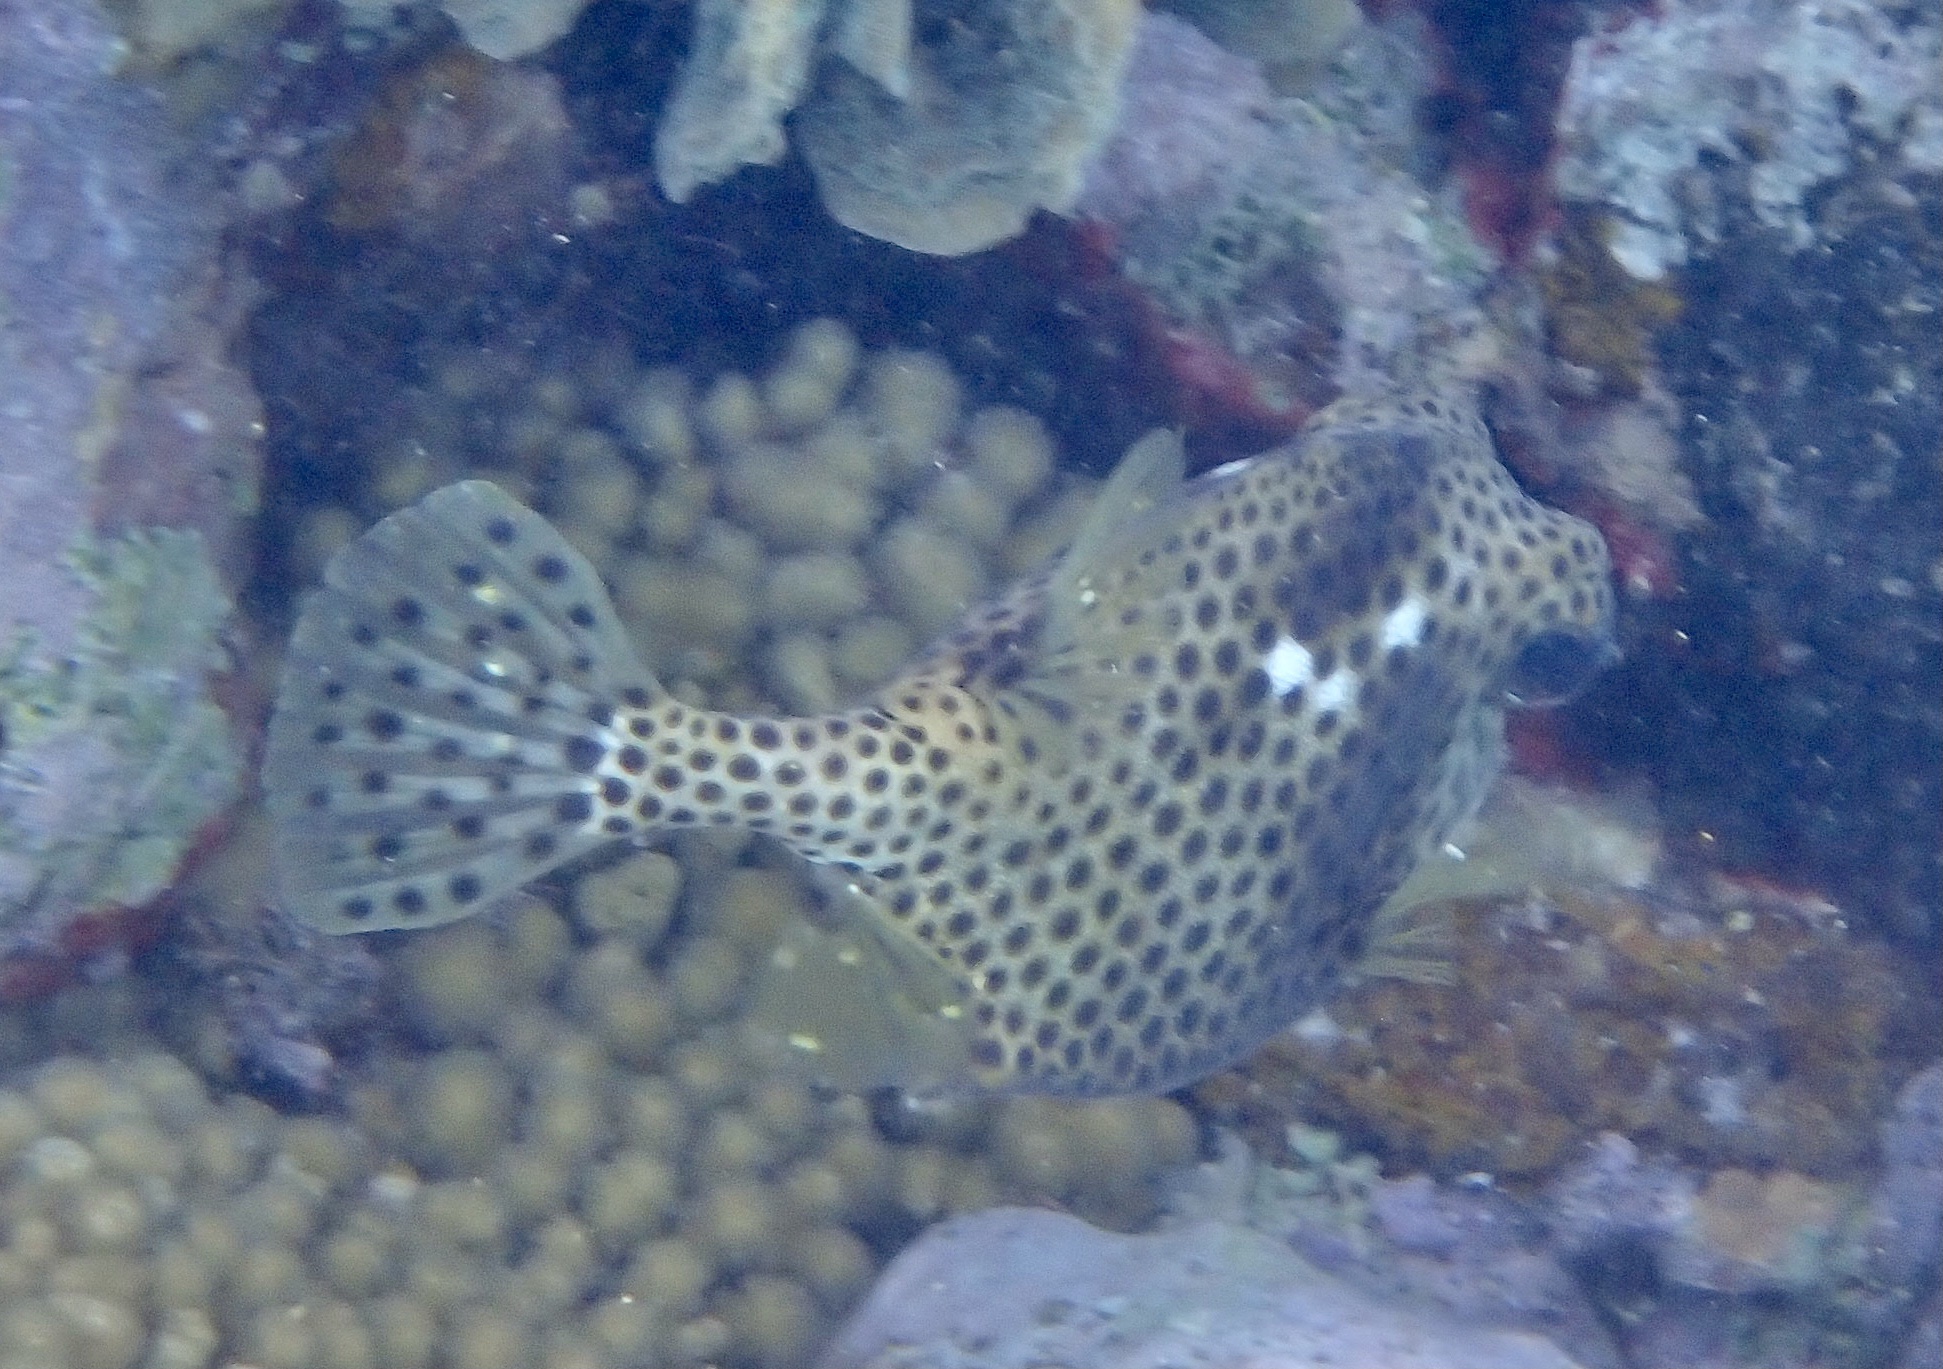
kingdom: Animalia
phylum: Chordata
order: Tetraodontiformes
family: Ostraciidae
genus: Lactophrys
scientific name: Lactophrys bicaudalis
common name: Spotted trunkfish
